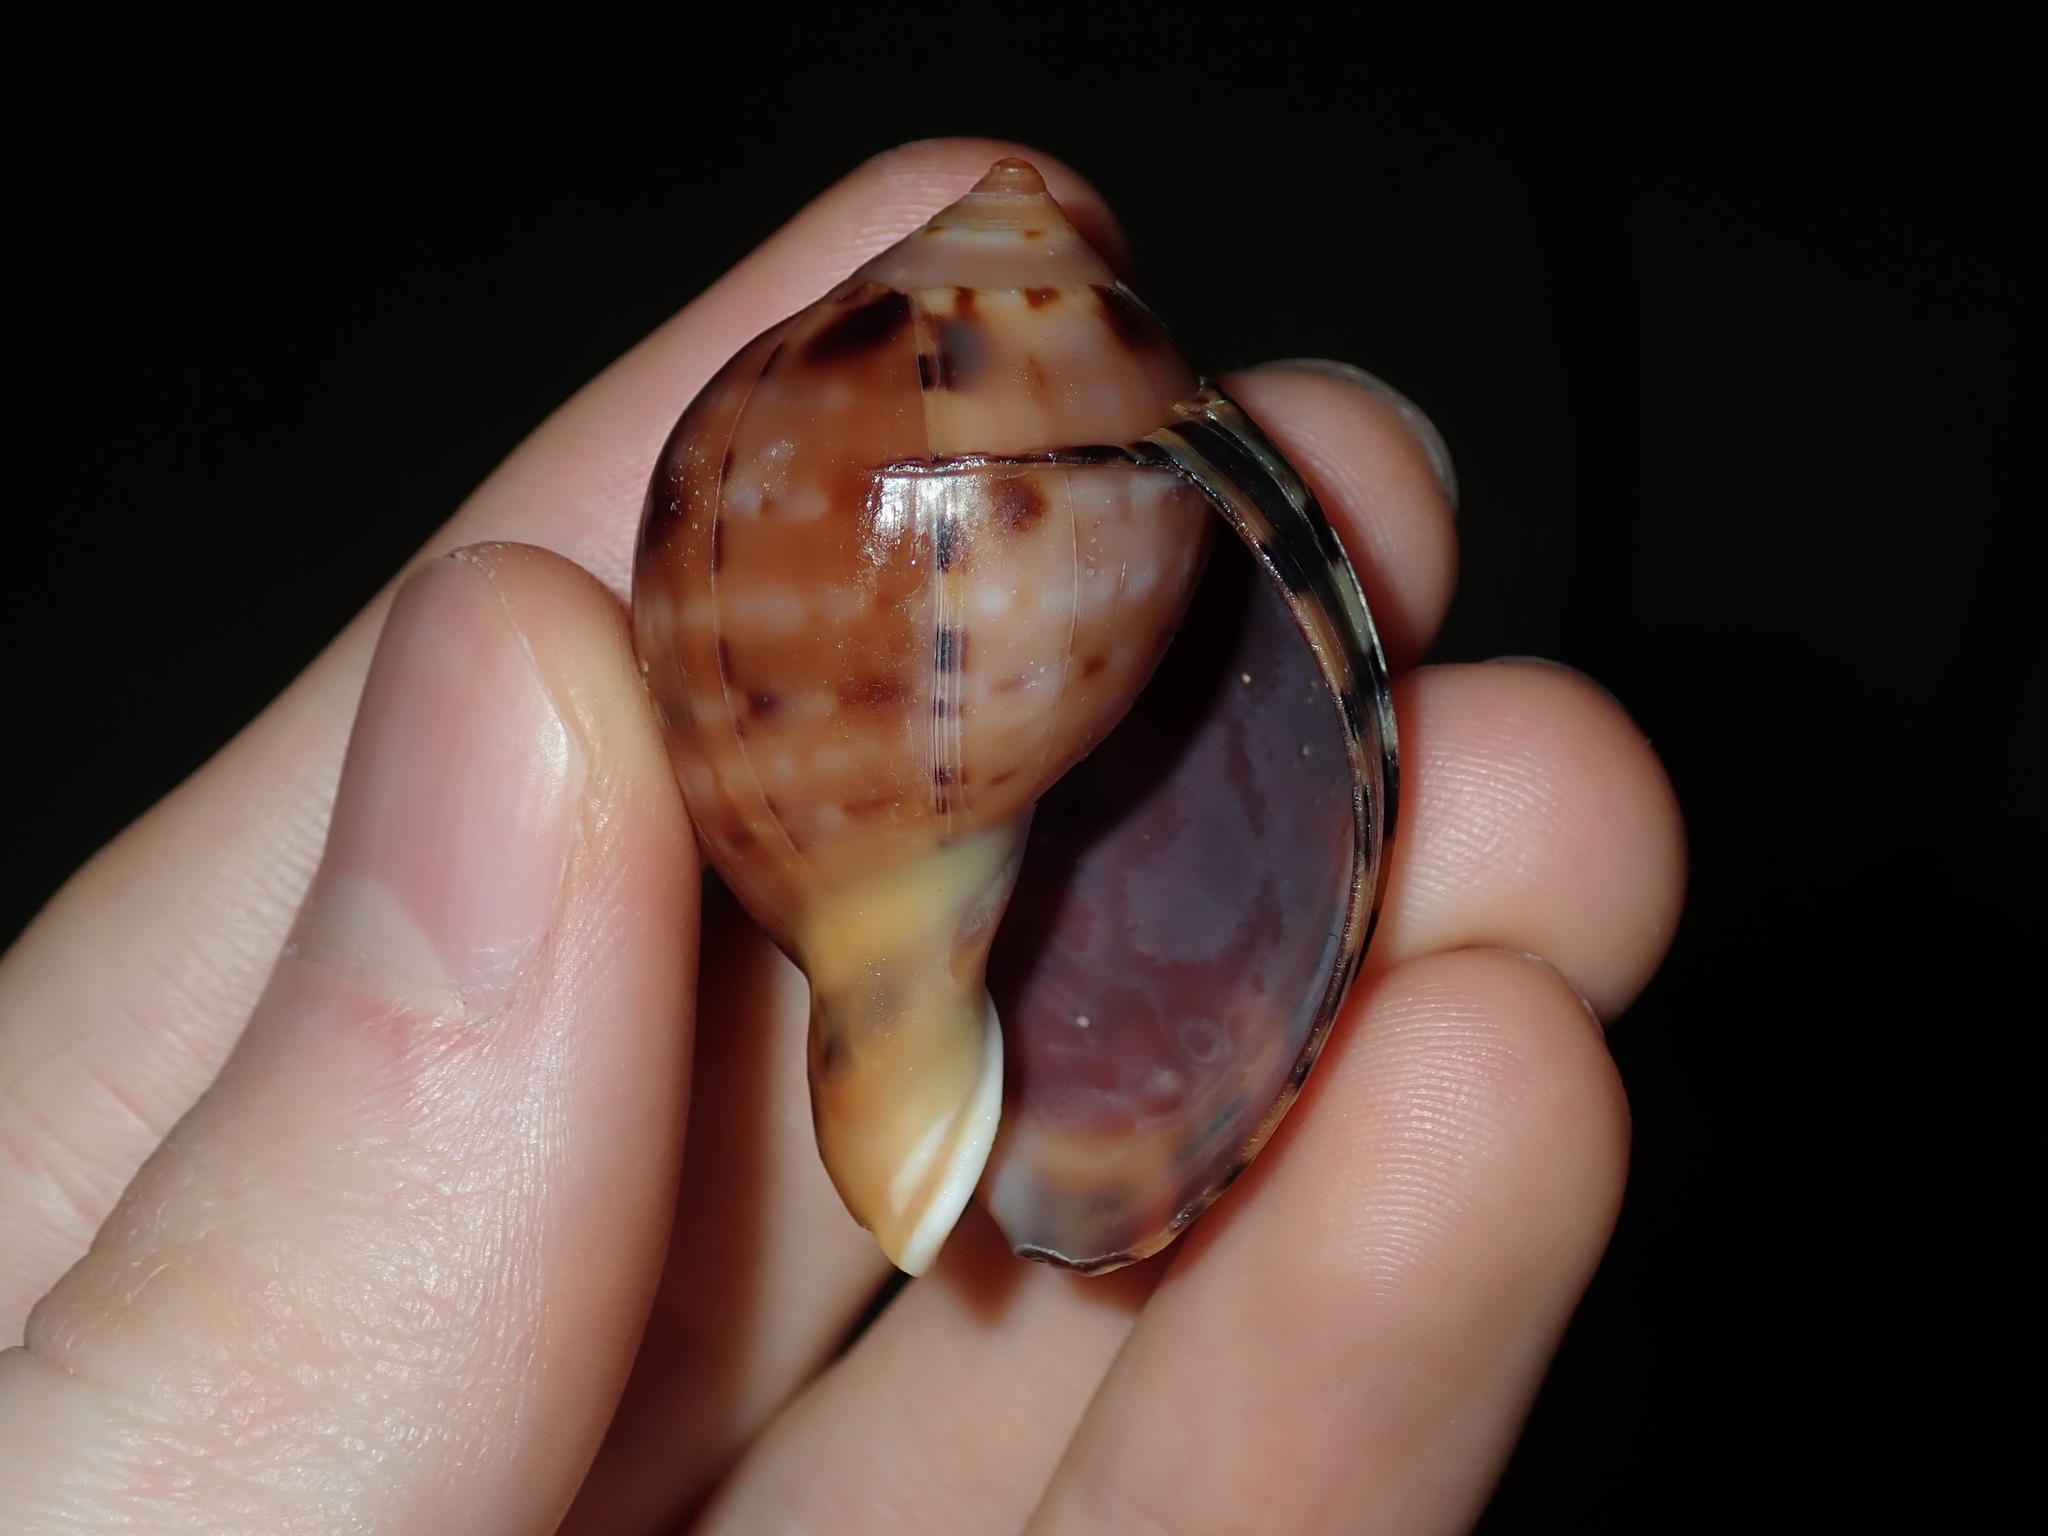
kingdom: Animalia
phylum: Mollusca
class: Gastropoda
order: Littorinimorpha
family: Cassidae
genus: Semicassis
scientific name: Semicassis labiata
